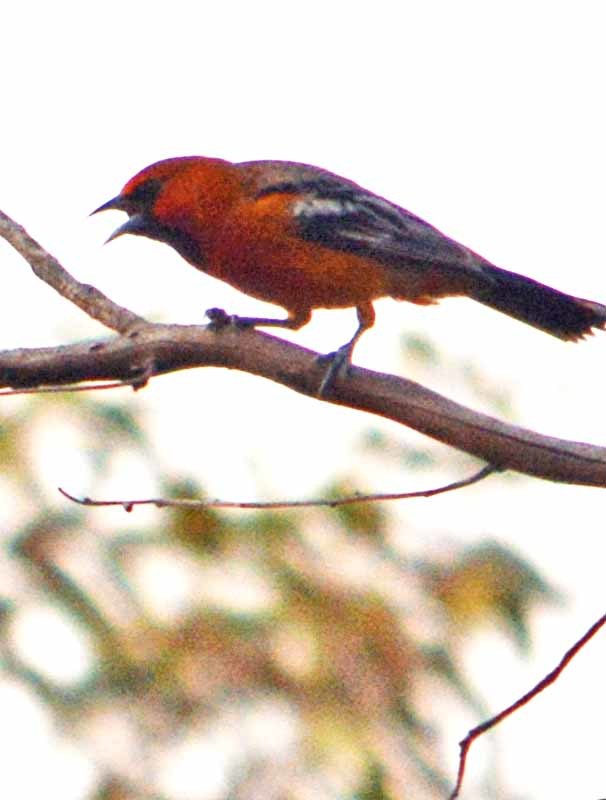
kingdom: Animalia
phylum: Chordata
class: Aves
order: Passeriformes
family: Icteridae
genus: Icterus
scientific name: Icterus pustulatus
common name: Streak-backed oriole
